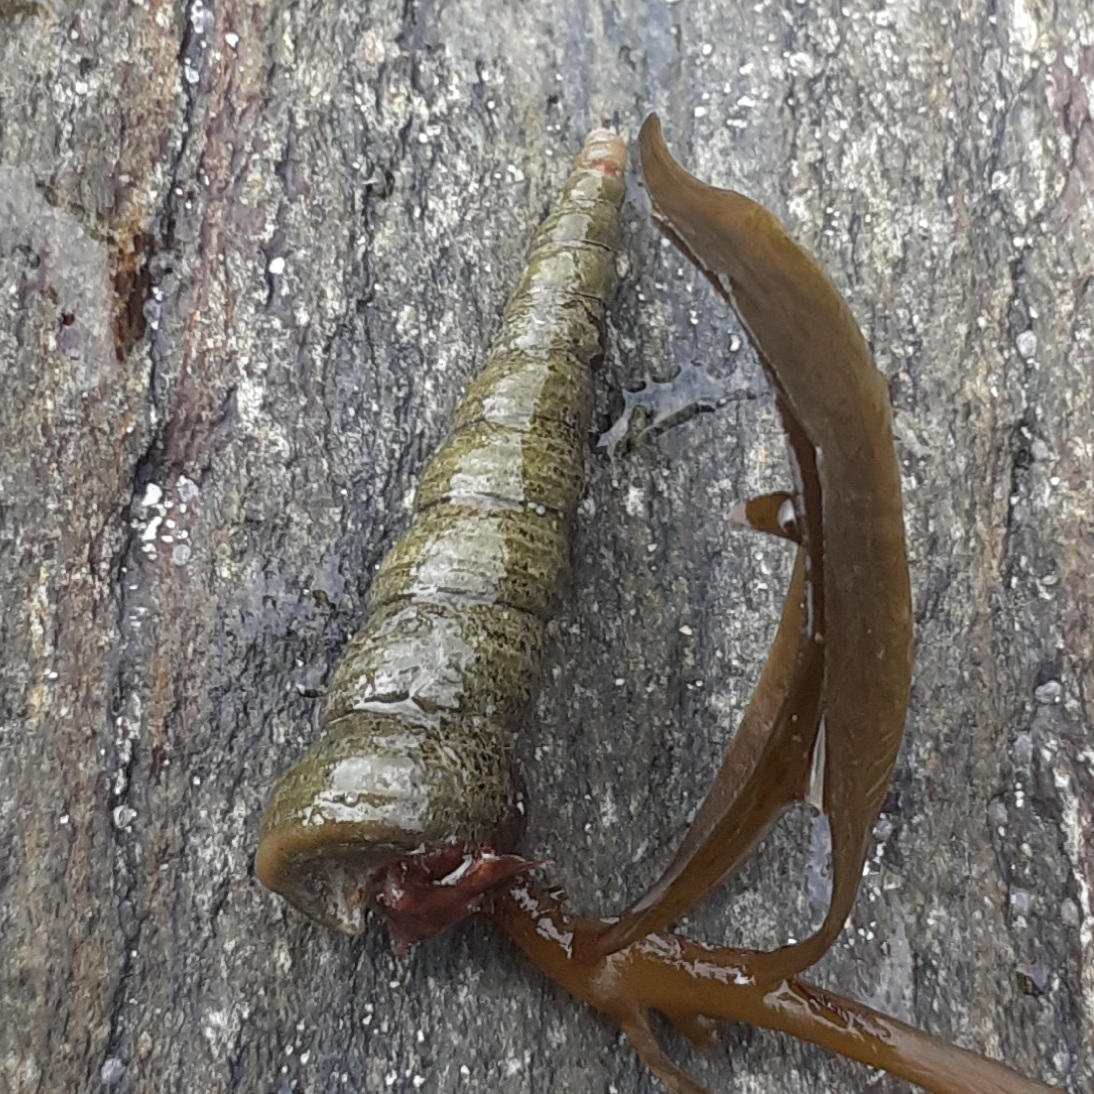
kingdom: Animalia
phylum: Mollusca
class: Gastropoda
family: Turritellidae
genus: Turritellinella
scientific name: Turritellinella tricarinata
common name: Auger shell
